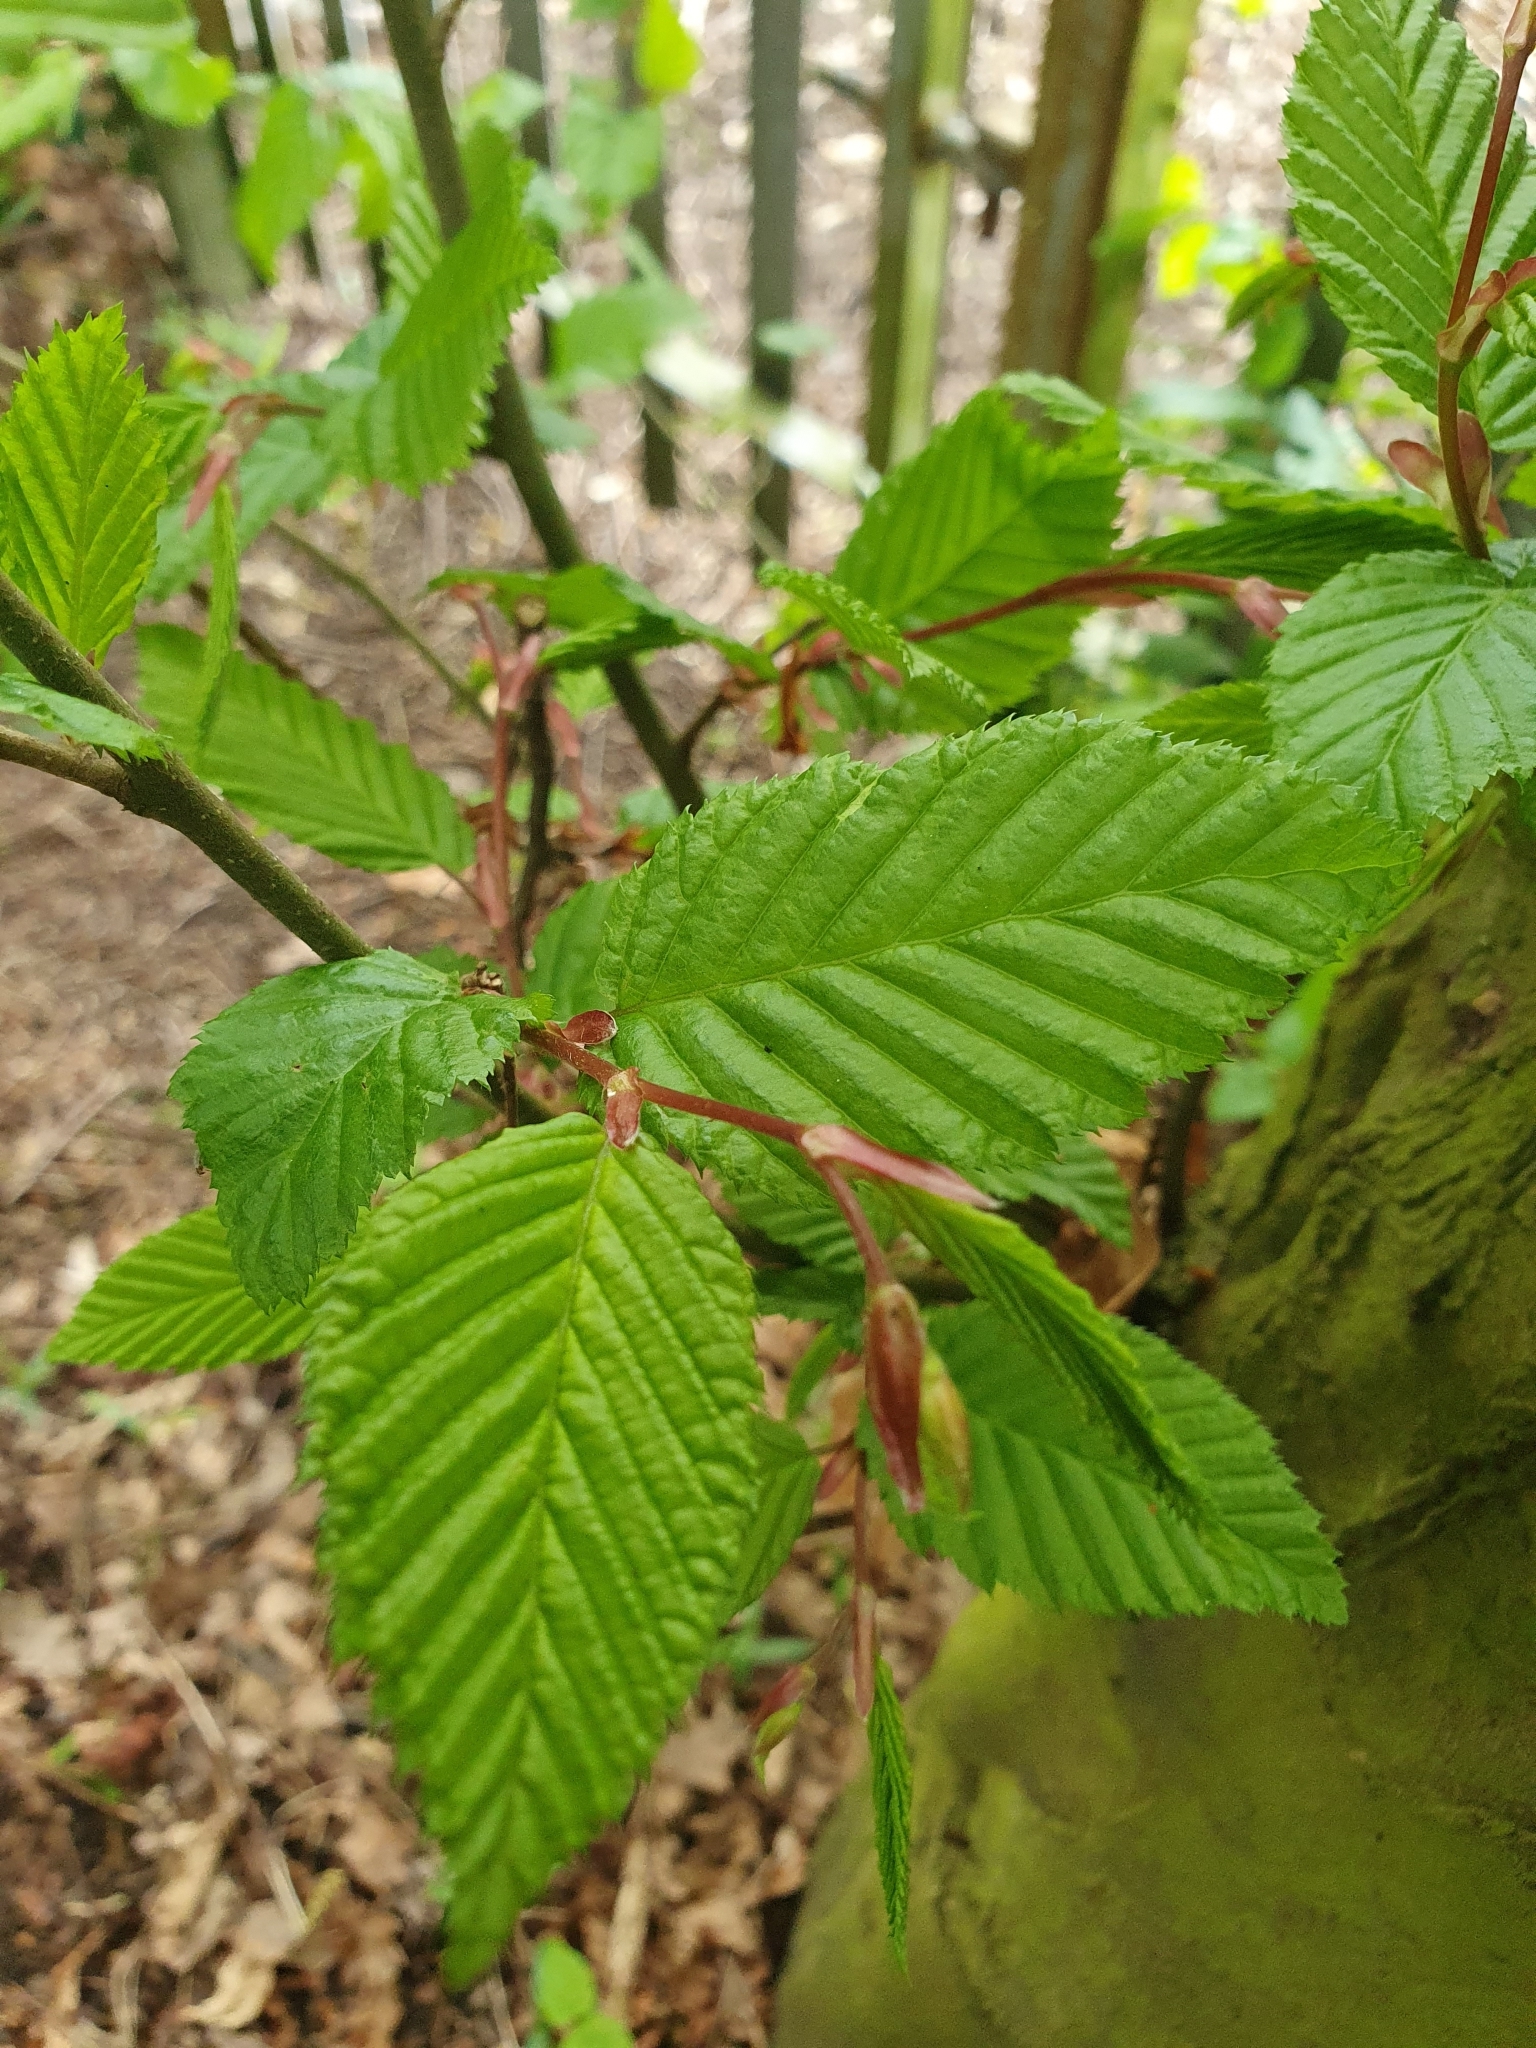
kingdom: Plantae
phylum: Tracheophyta
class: Magnoliopsida
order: Fagales
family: Betulaceae
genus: Carpinus
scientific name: Carpinus betulus
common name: Hornbeam
